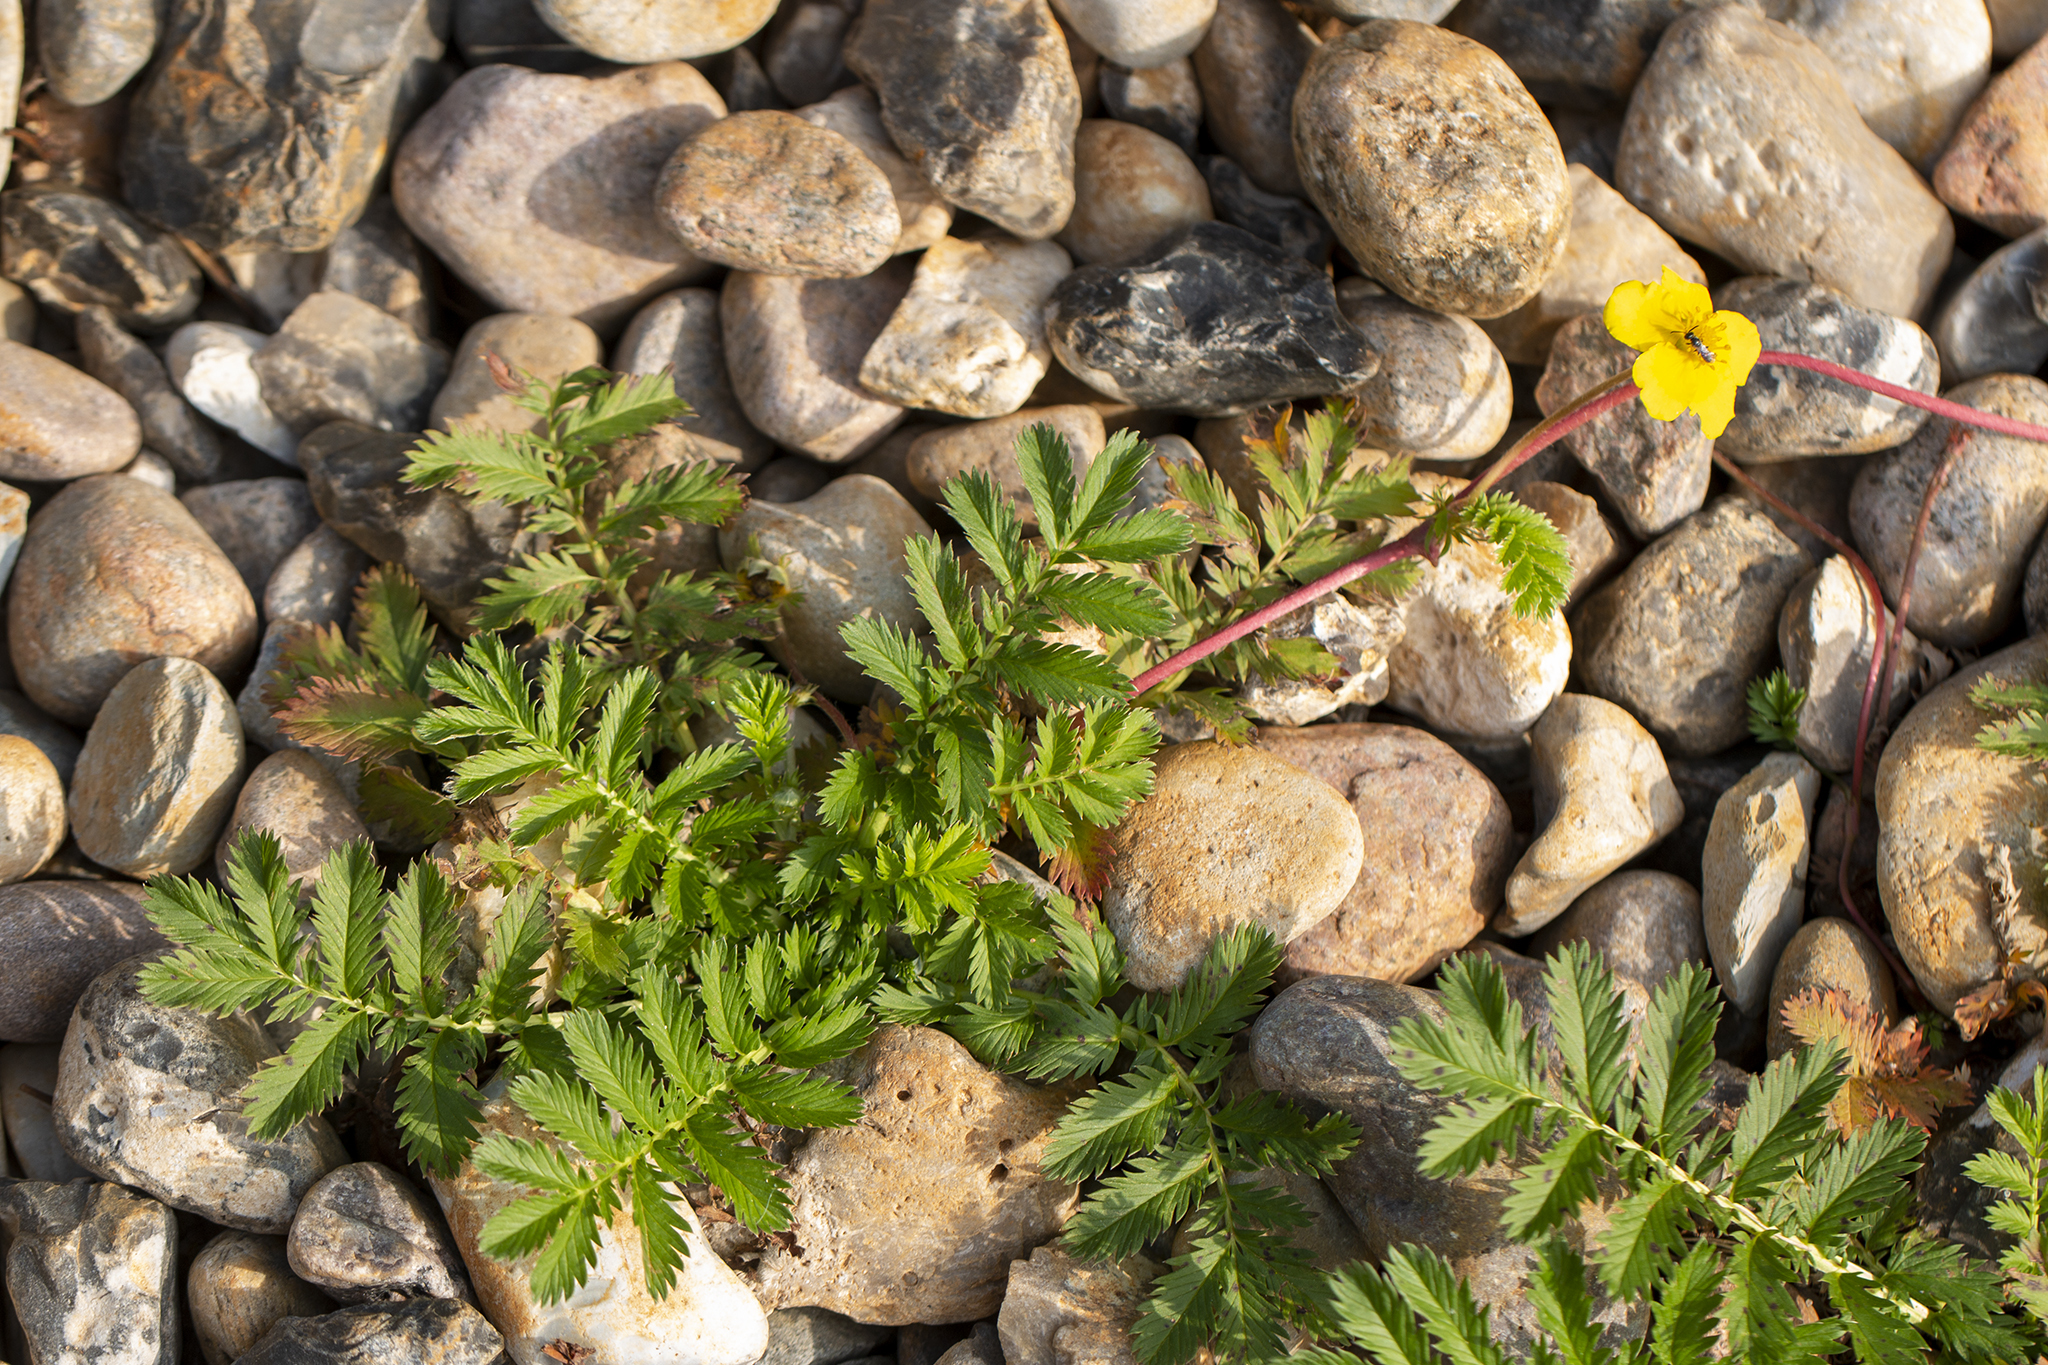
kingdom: Plantae
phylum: Tracheophyta
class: Magnoliopsida
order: Rosales
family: Rosaceae
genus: Argentina
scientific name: Argentina anserina
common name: Common silverweed
